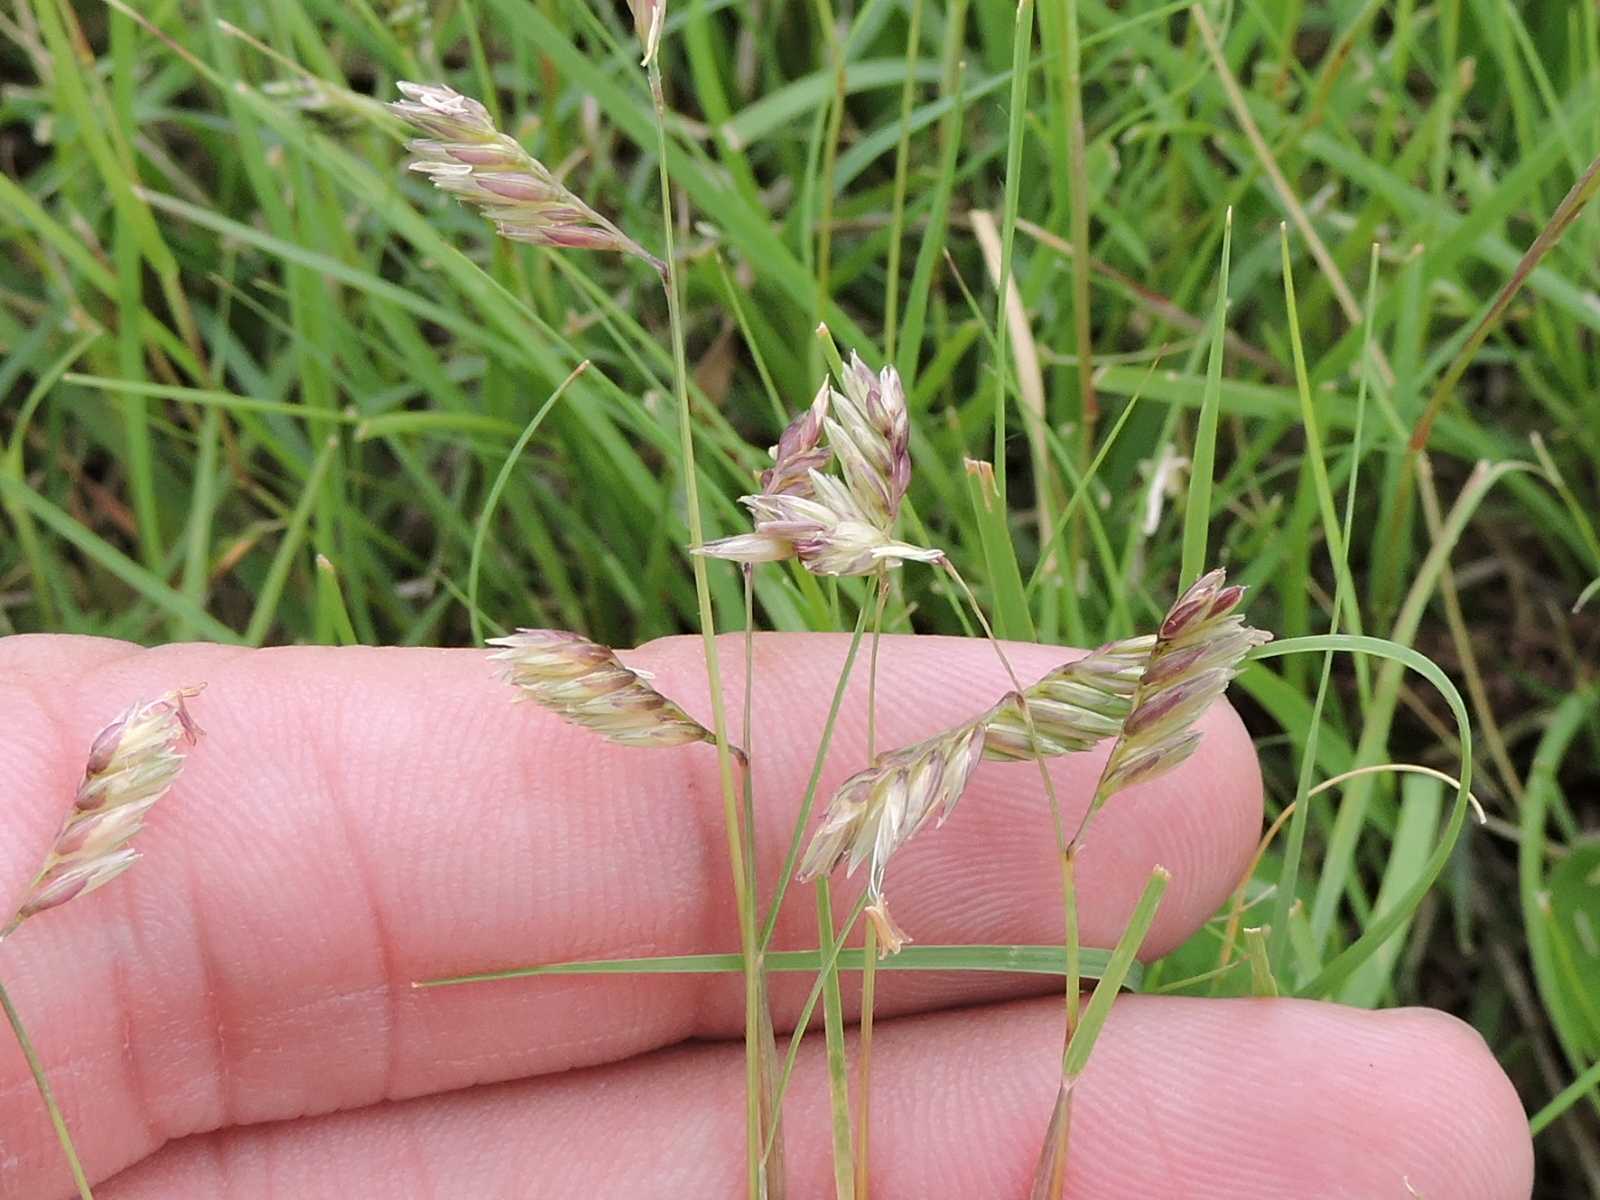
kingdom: Plantae
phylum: Tracheophyta
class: Liliopsida
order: Poales
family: Poaceae
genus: Bouteloua
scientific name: Bouteloua dactyloides
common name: Buffalo grass
